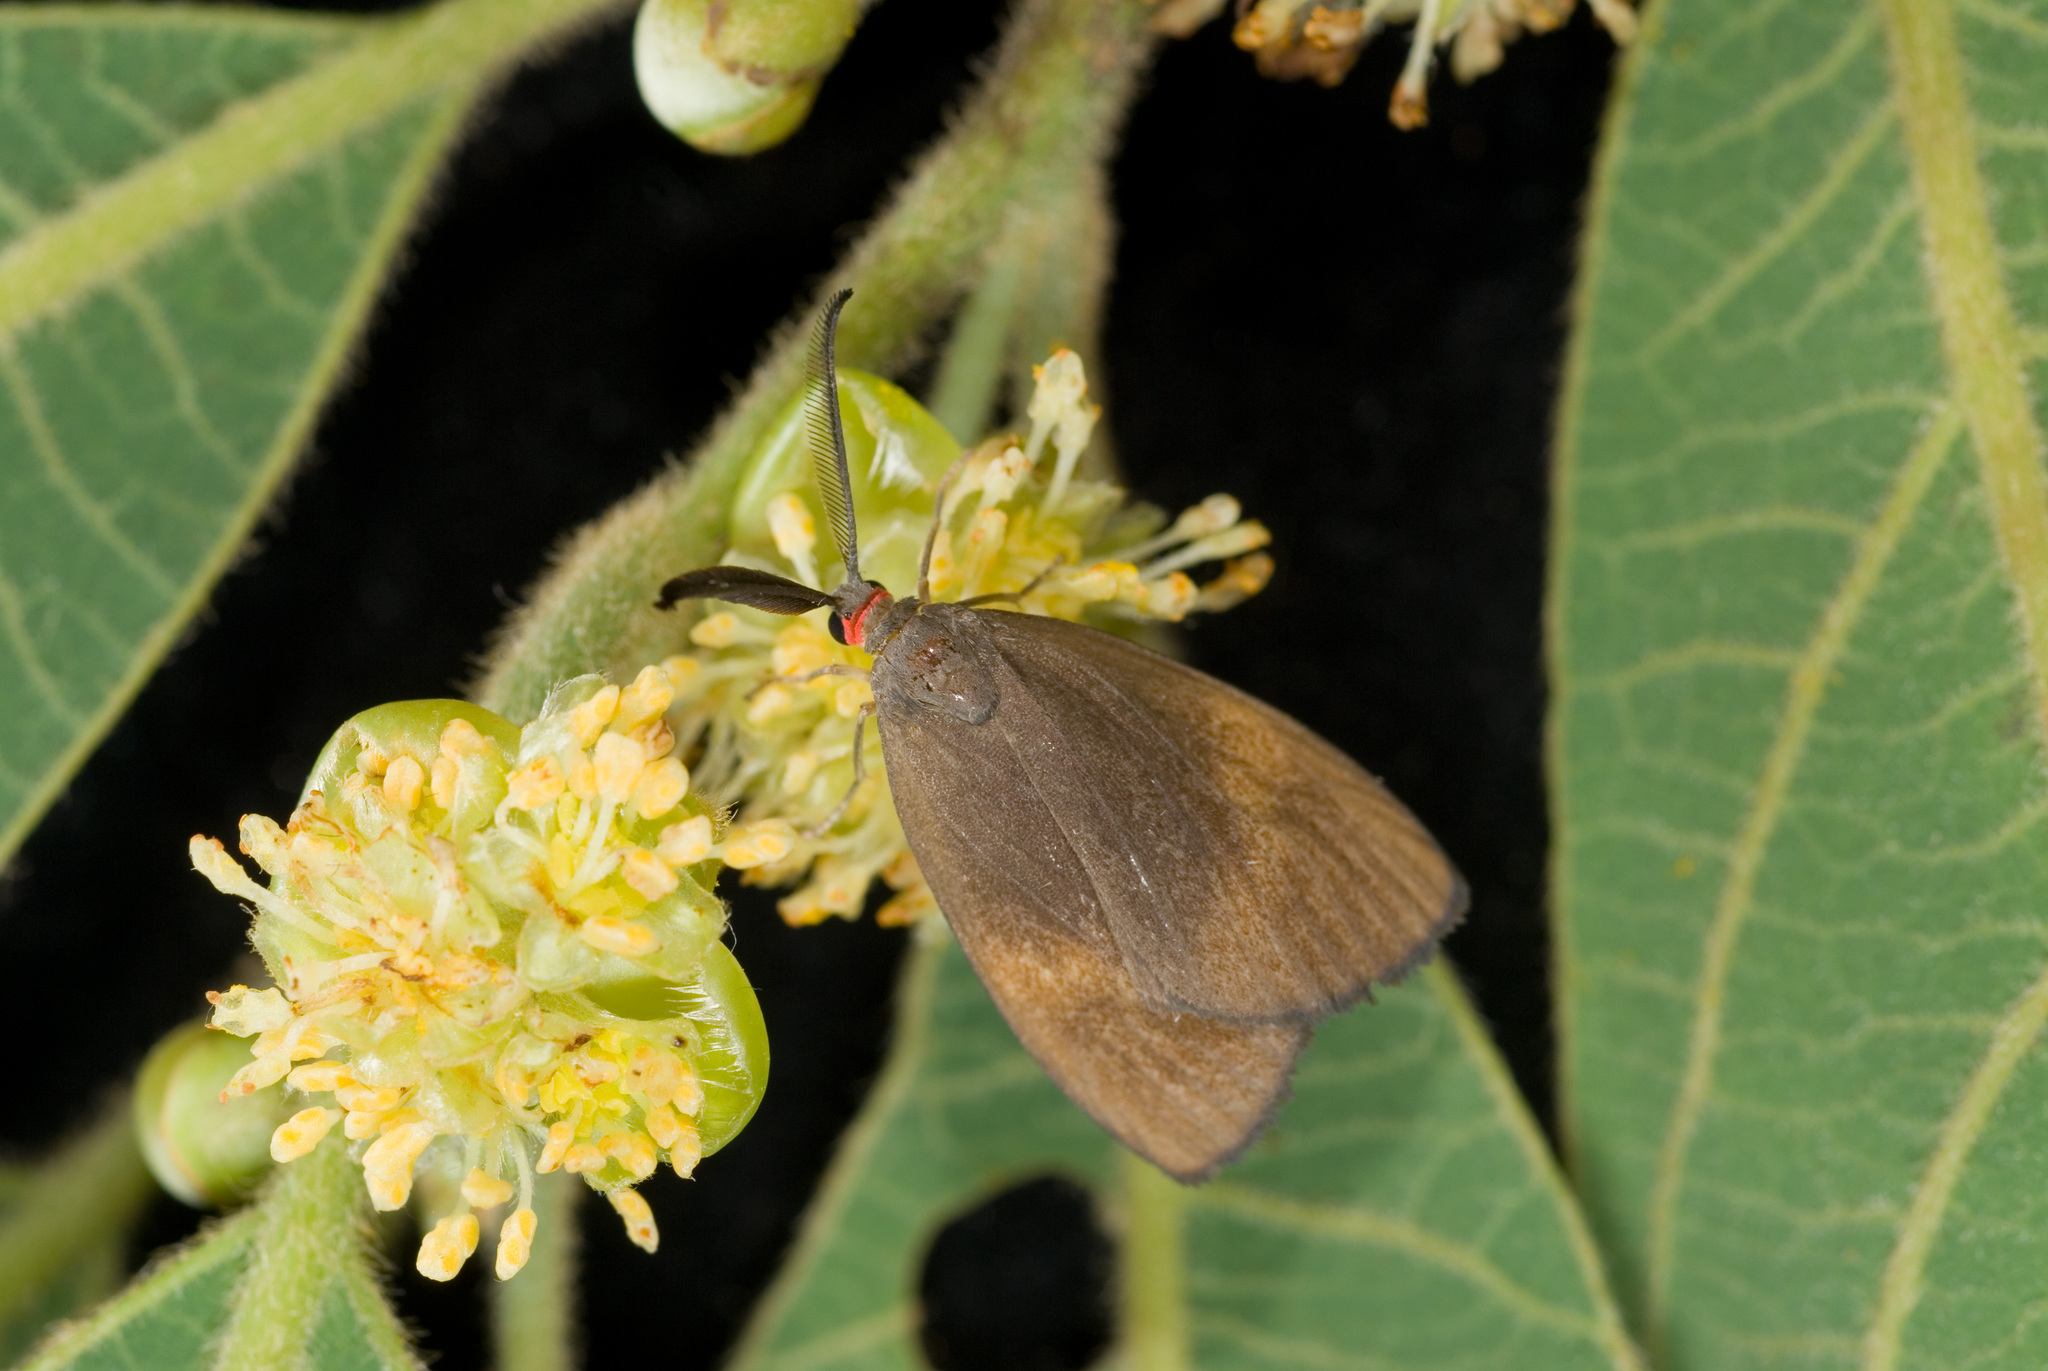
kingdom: Animalia
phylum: Arthropoda
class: Insecta
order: Lepidoptera
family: Zygaenidae
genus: Arbudas
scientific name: Arbudas bilushenmu
